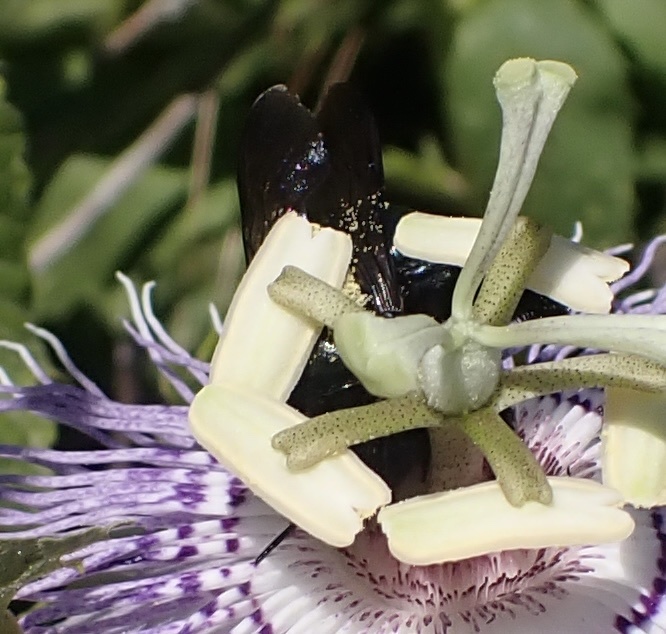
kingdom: Animalia
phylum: Arthropoda
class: Insecta
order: Hymenoptera
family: Apidae
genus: Xylocopa
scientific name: Xylocopa micans
